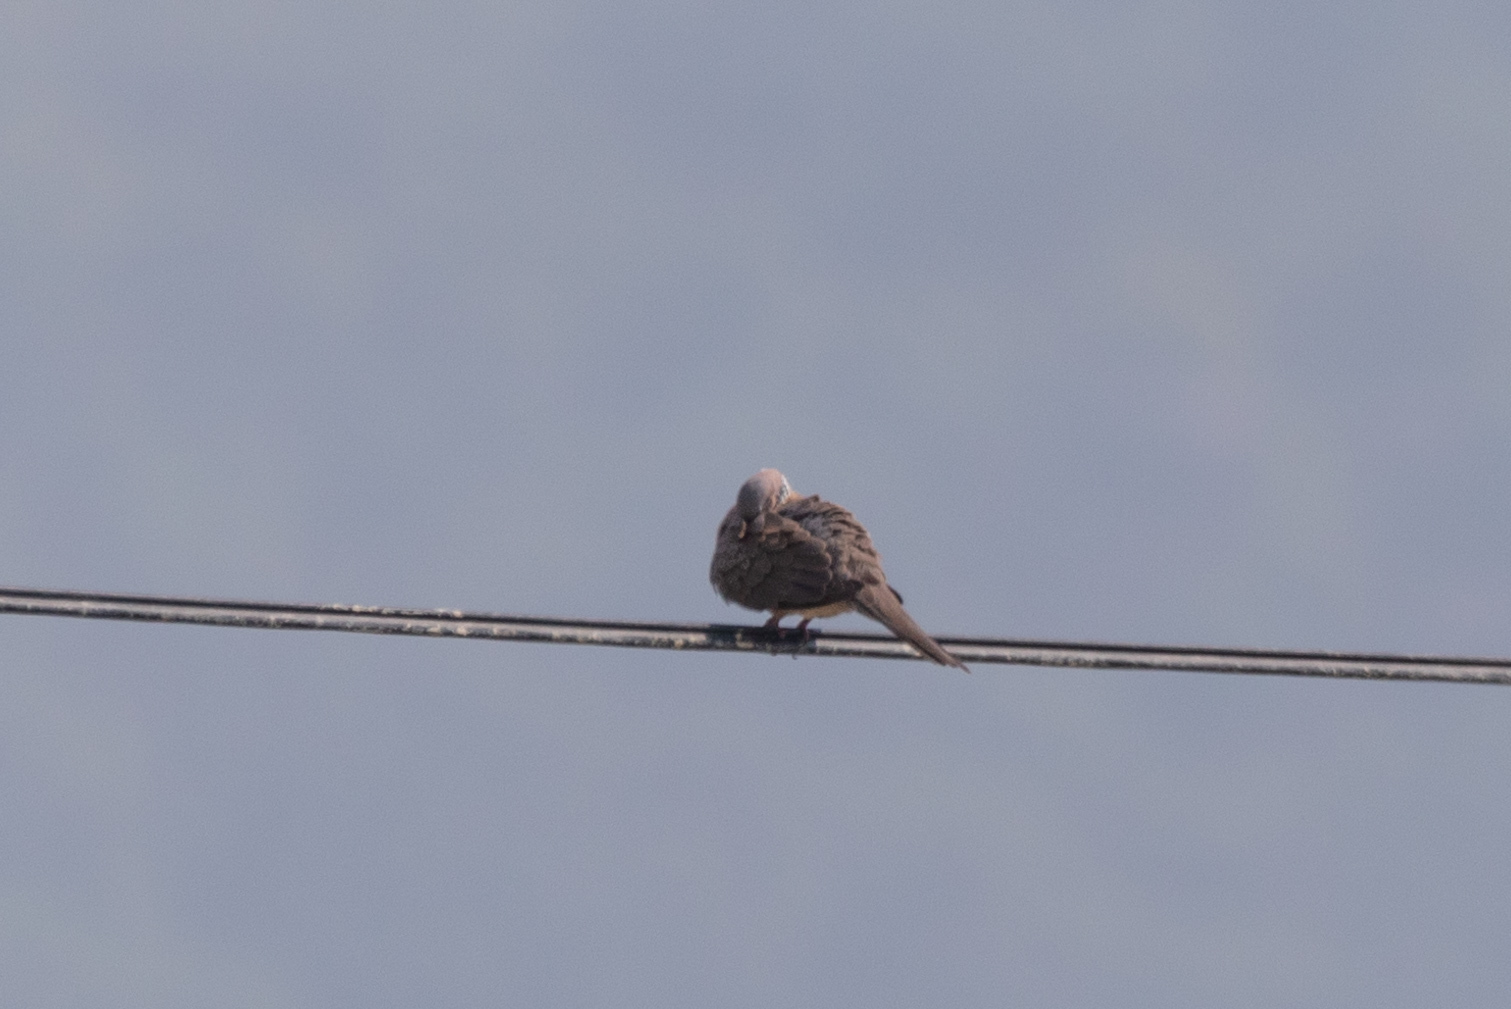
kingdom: Animalia
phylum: Chordata
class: Aves
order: Columbiformes
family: Columbidae
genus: Spilopelia
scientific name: Spilopelia chinensis
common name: Spotted dove
